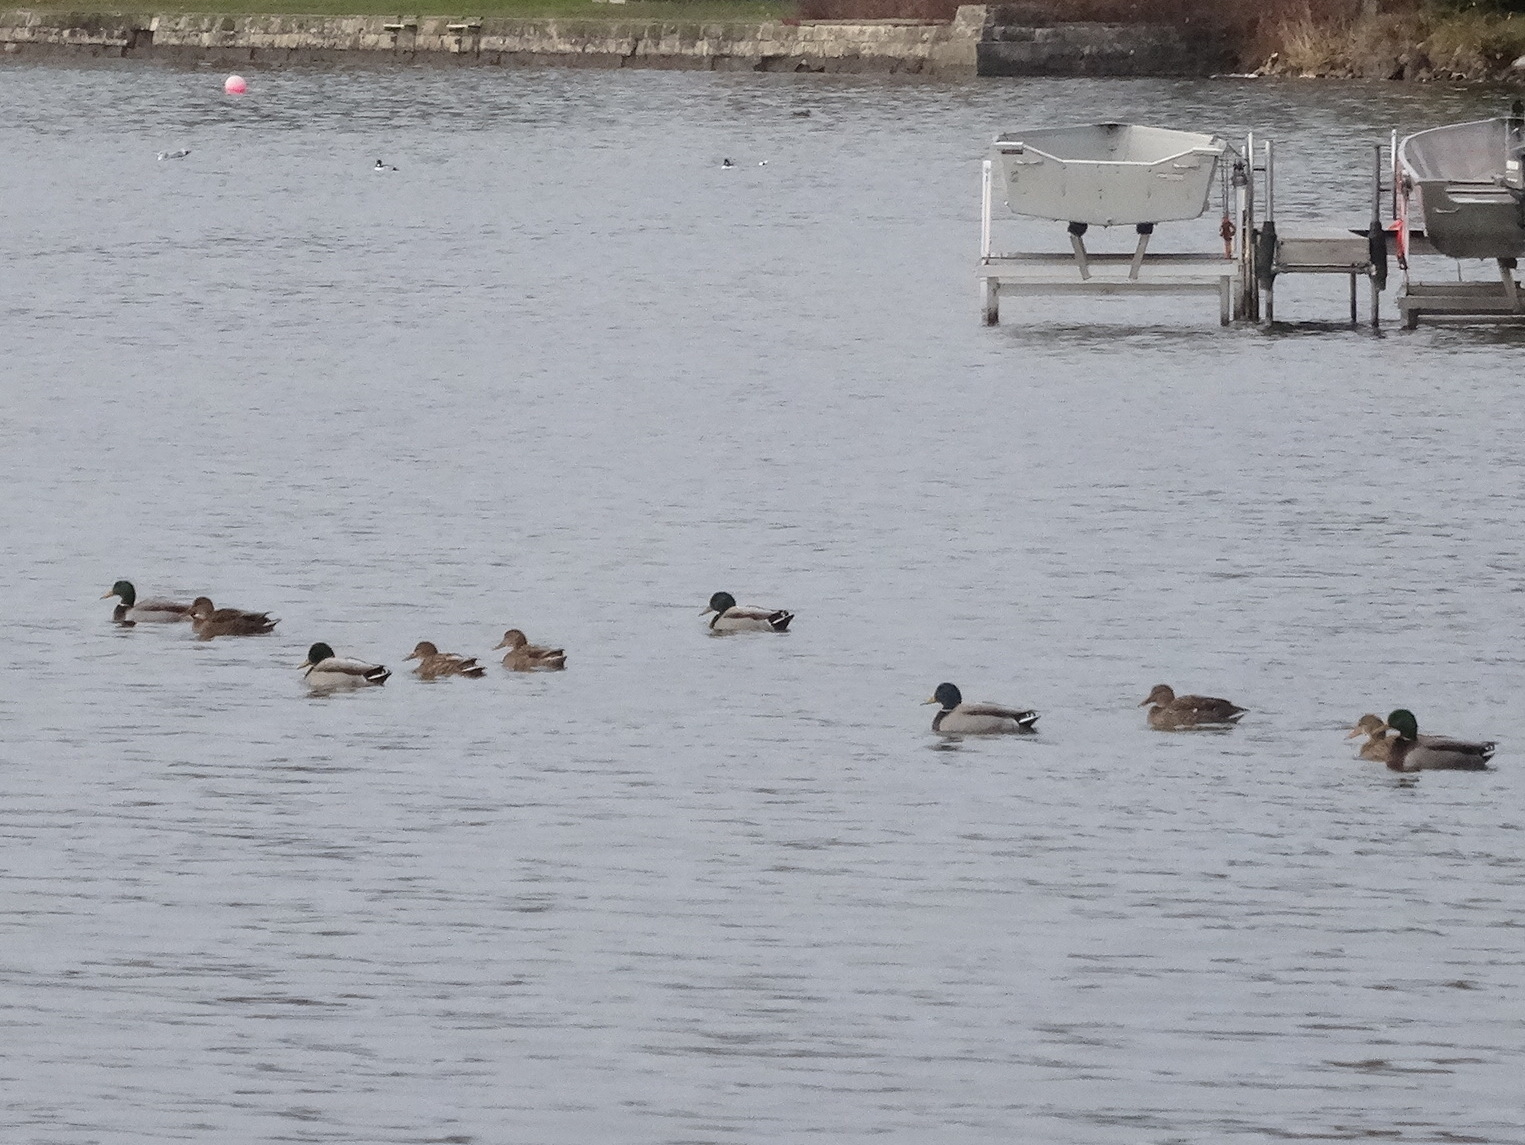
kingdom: Animalia
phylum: Chordata
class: Aves
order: Anseriformes
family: Anatidae
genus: Anas
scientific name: Anas platyrhynchos
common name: Mallard
